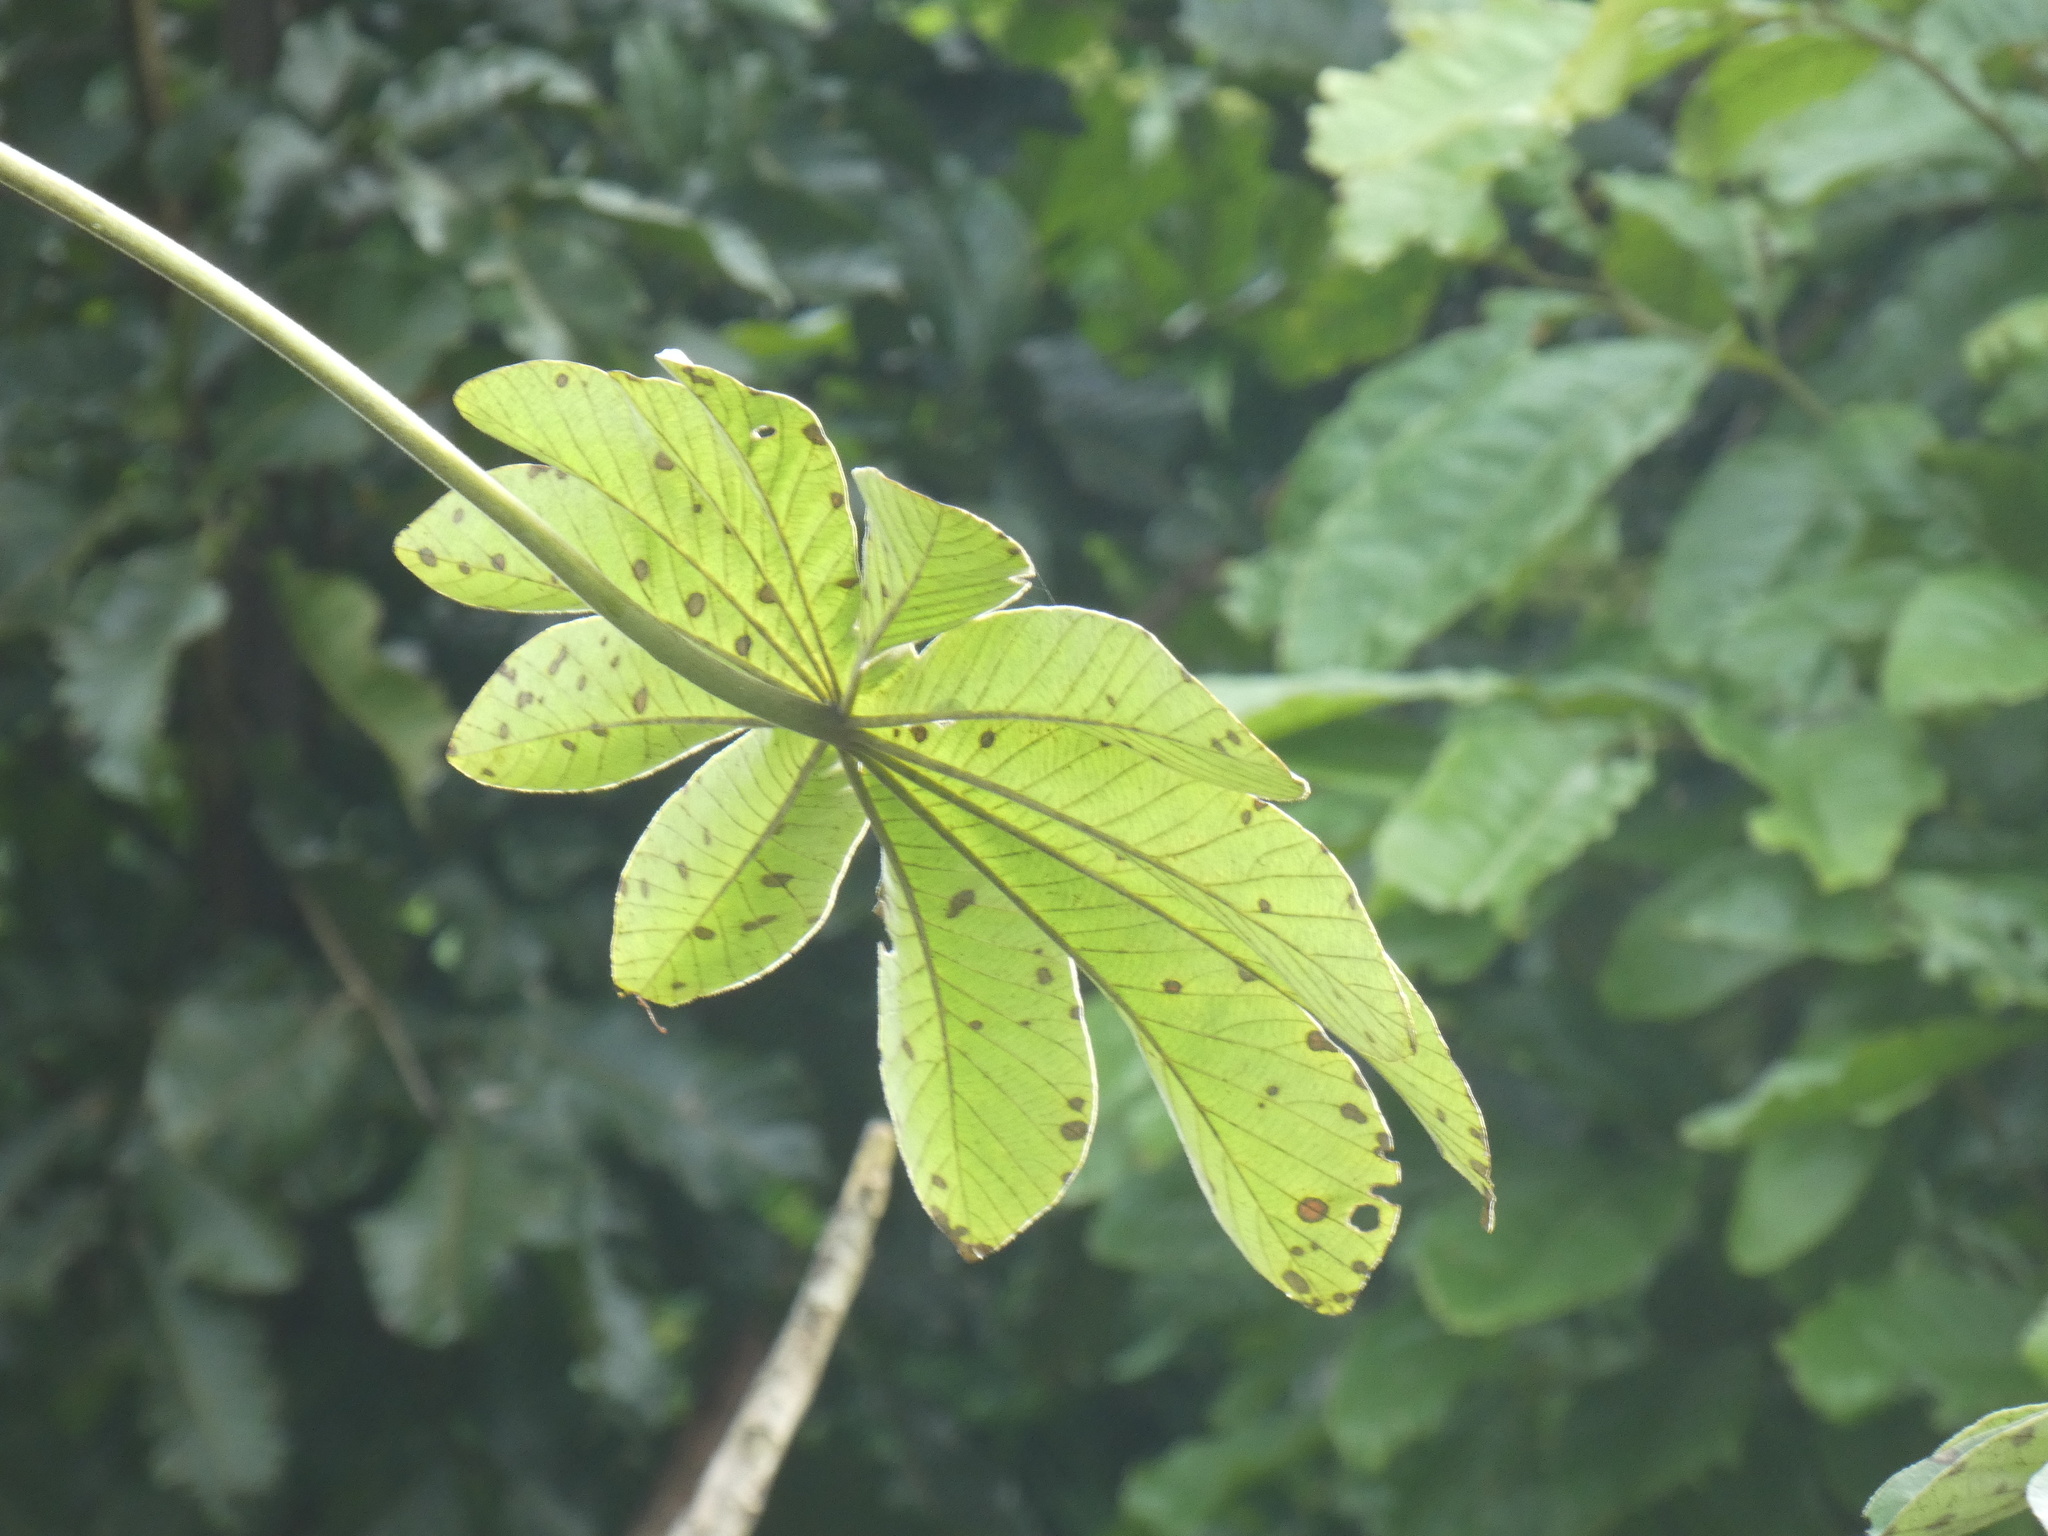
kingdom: Plantae
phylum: Tracheophyta
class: Magnoliopsida
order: Rosales
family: Urticaceae
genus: Cecropia
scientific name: Cecropia pachystachya
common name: Ambay pumpwood
